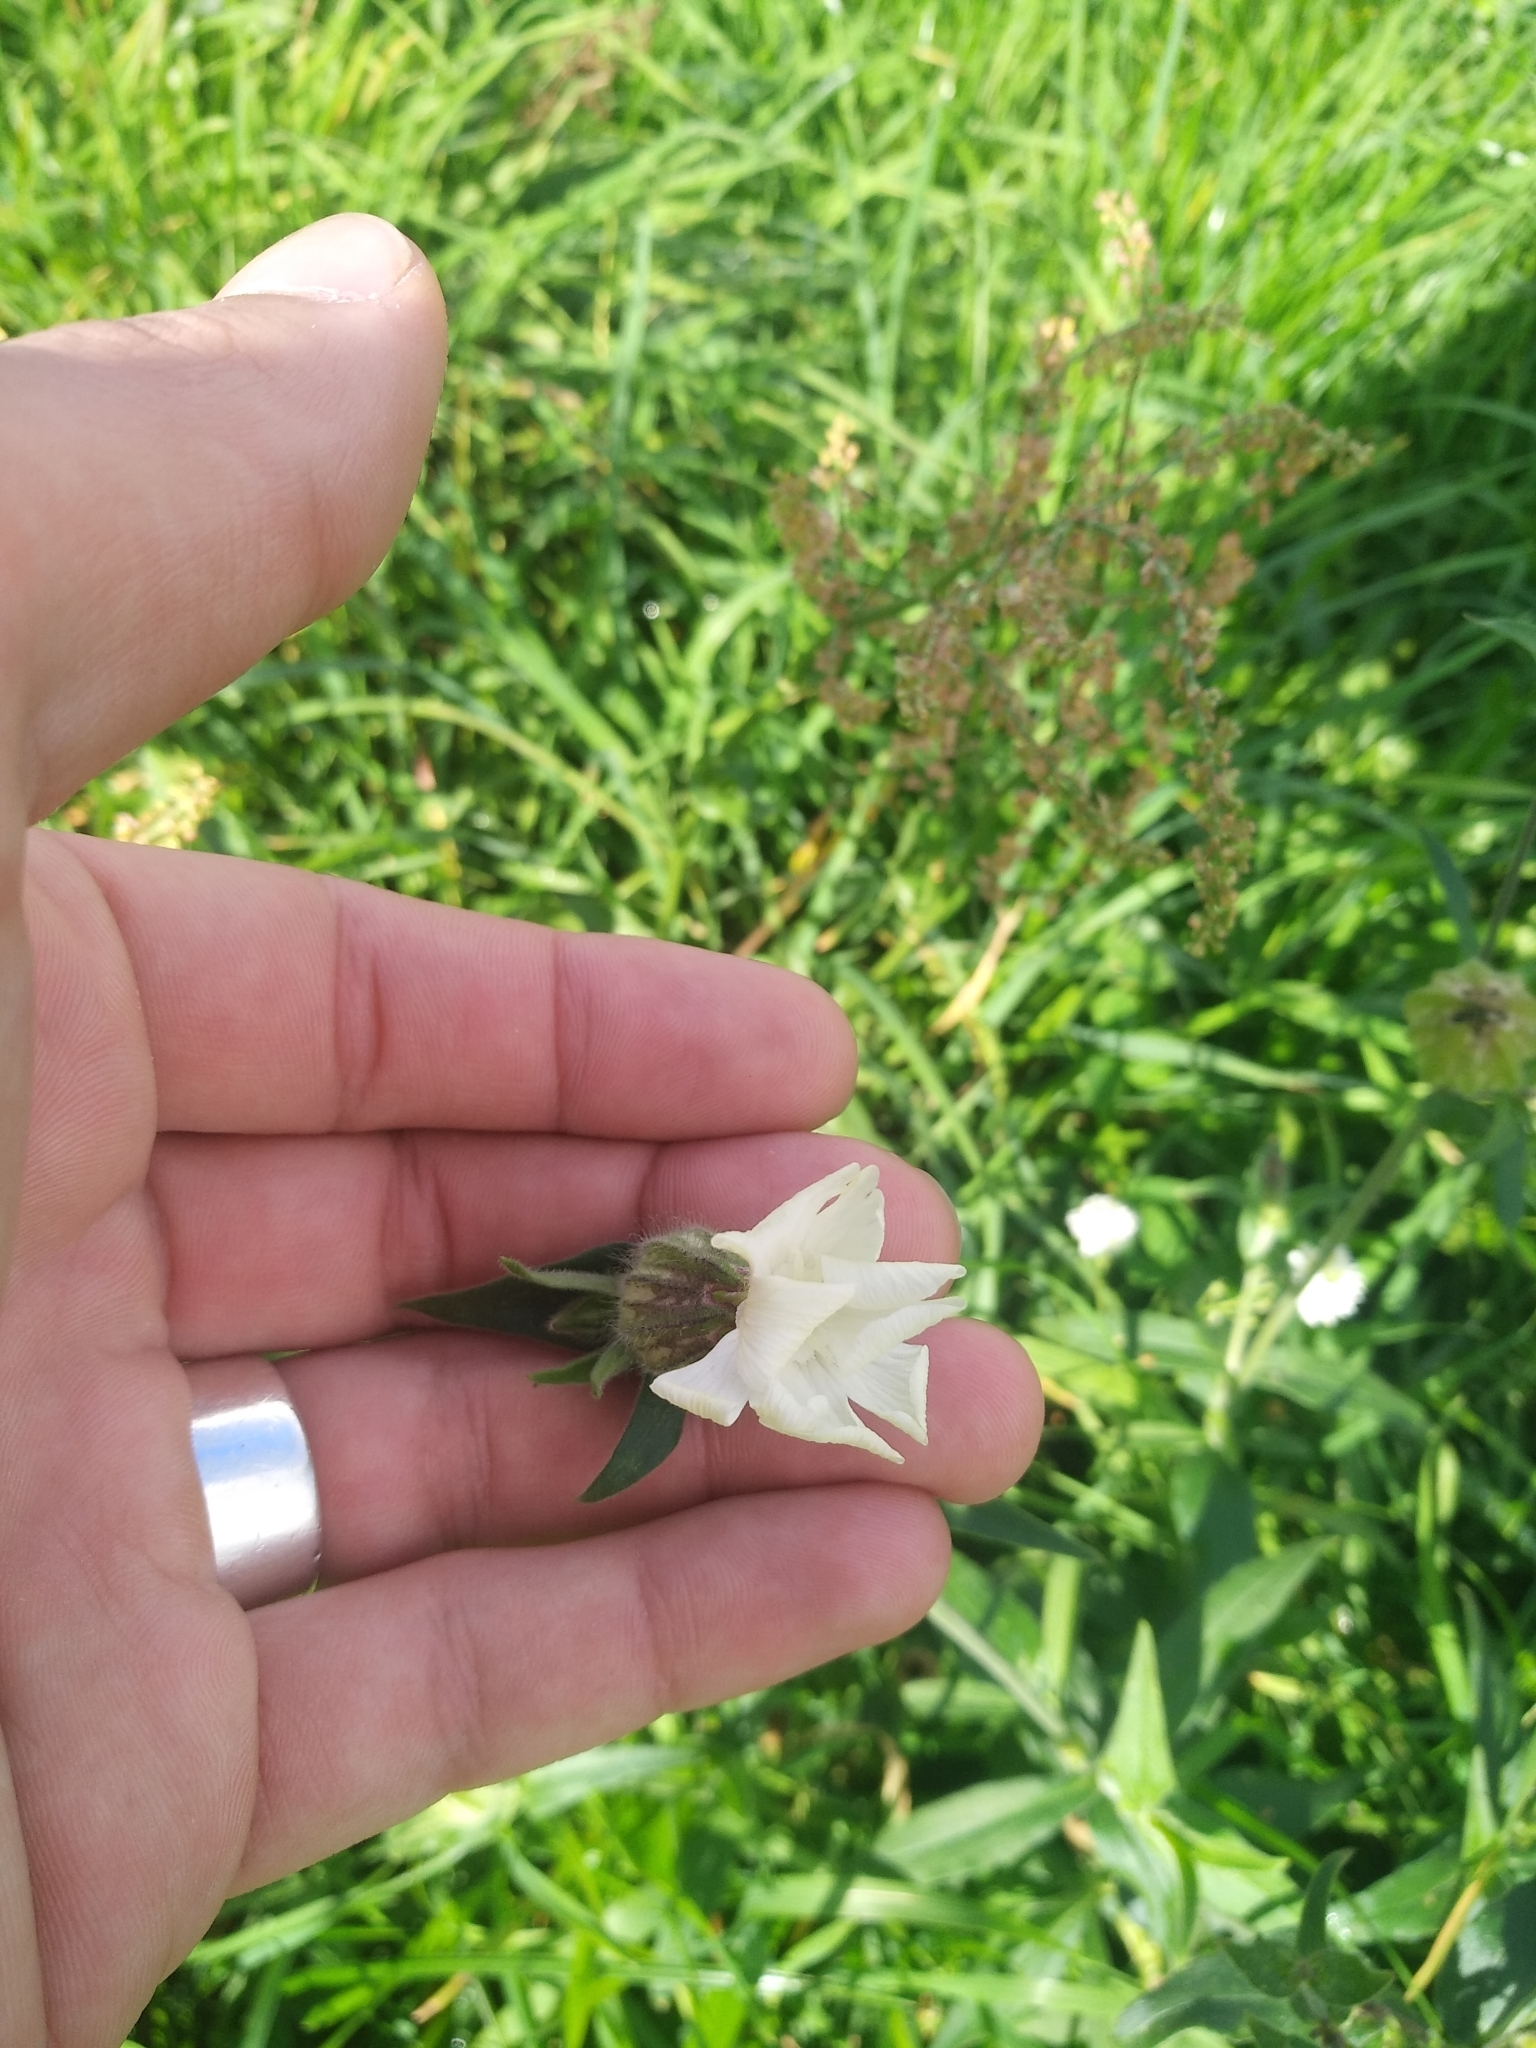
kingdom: Plantae
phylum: Tracheophyta
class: Magnoliopsida
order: Caryophyllales
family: Caryophyllaceae
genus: Silene
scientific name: Silene latifolia
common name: White campion
